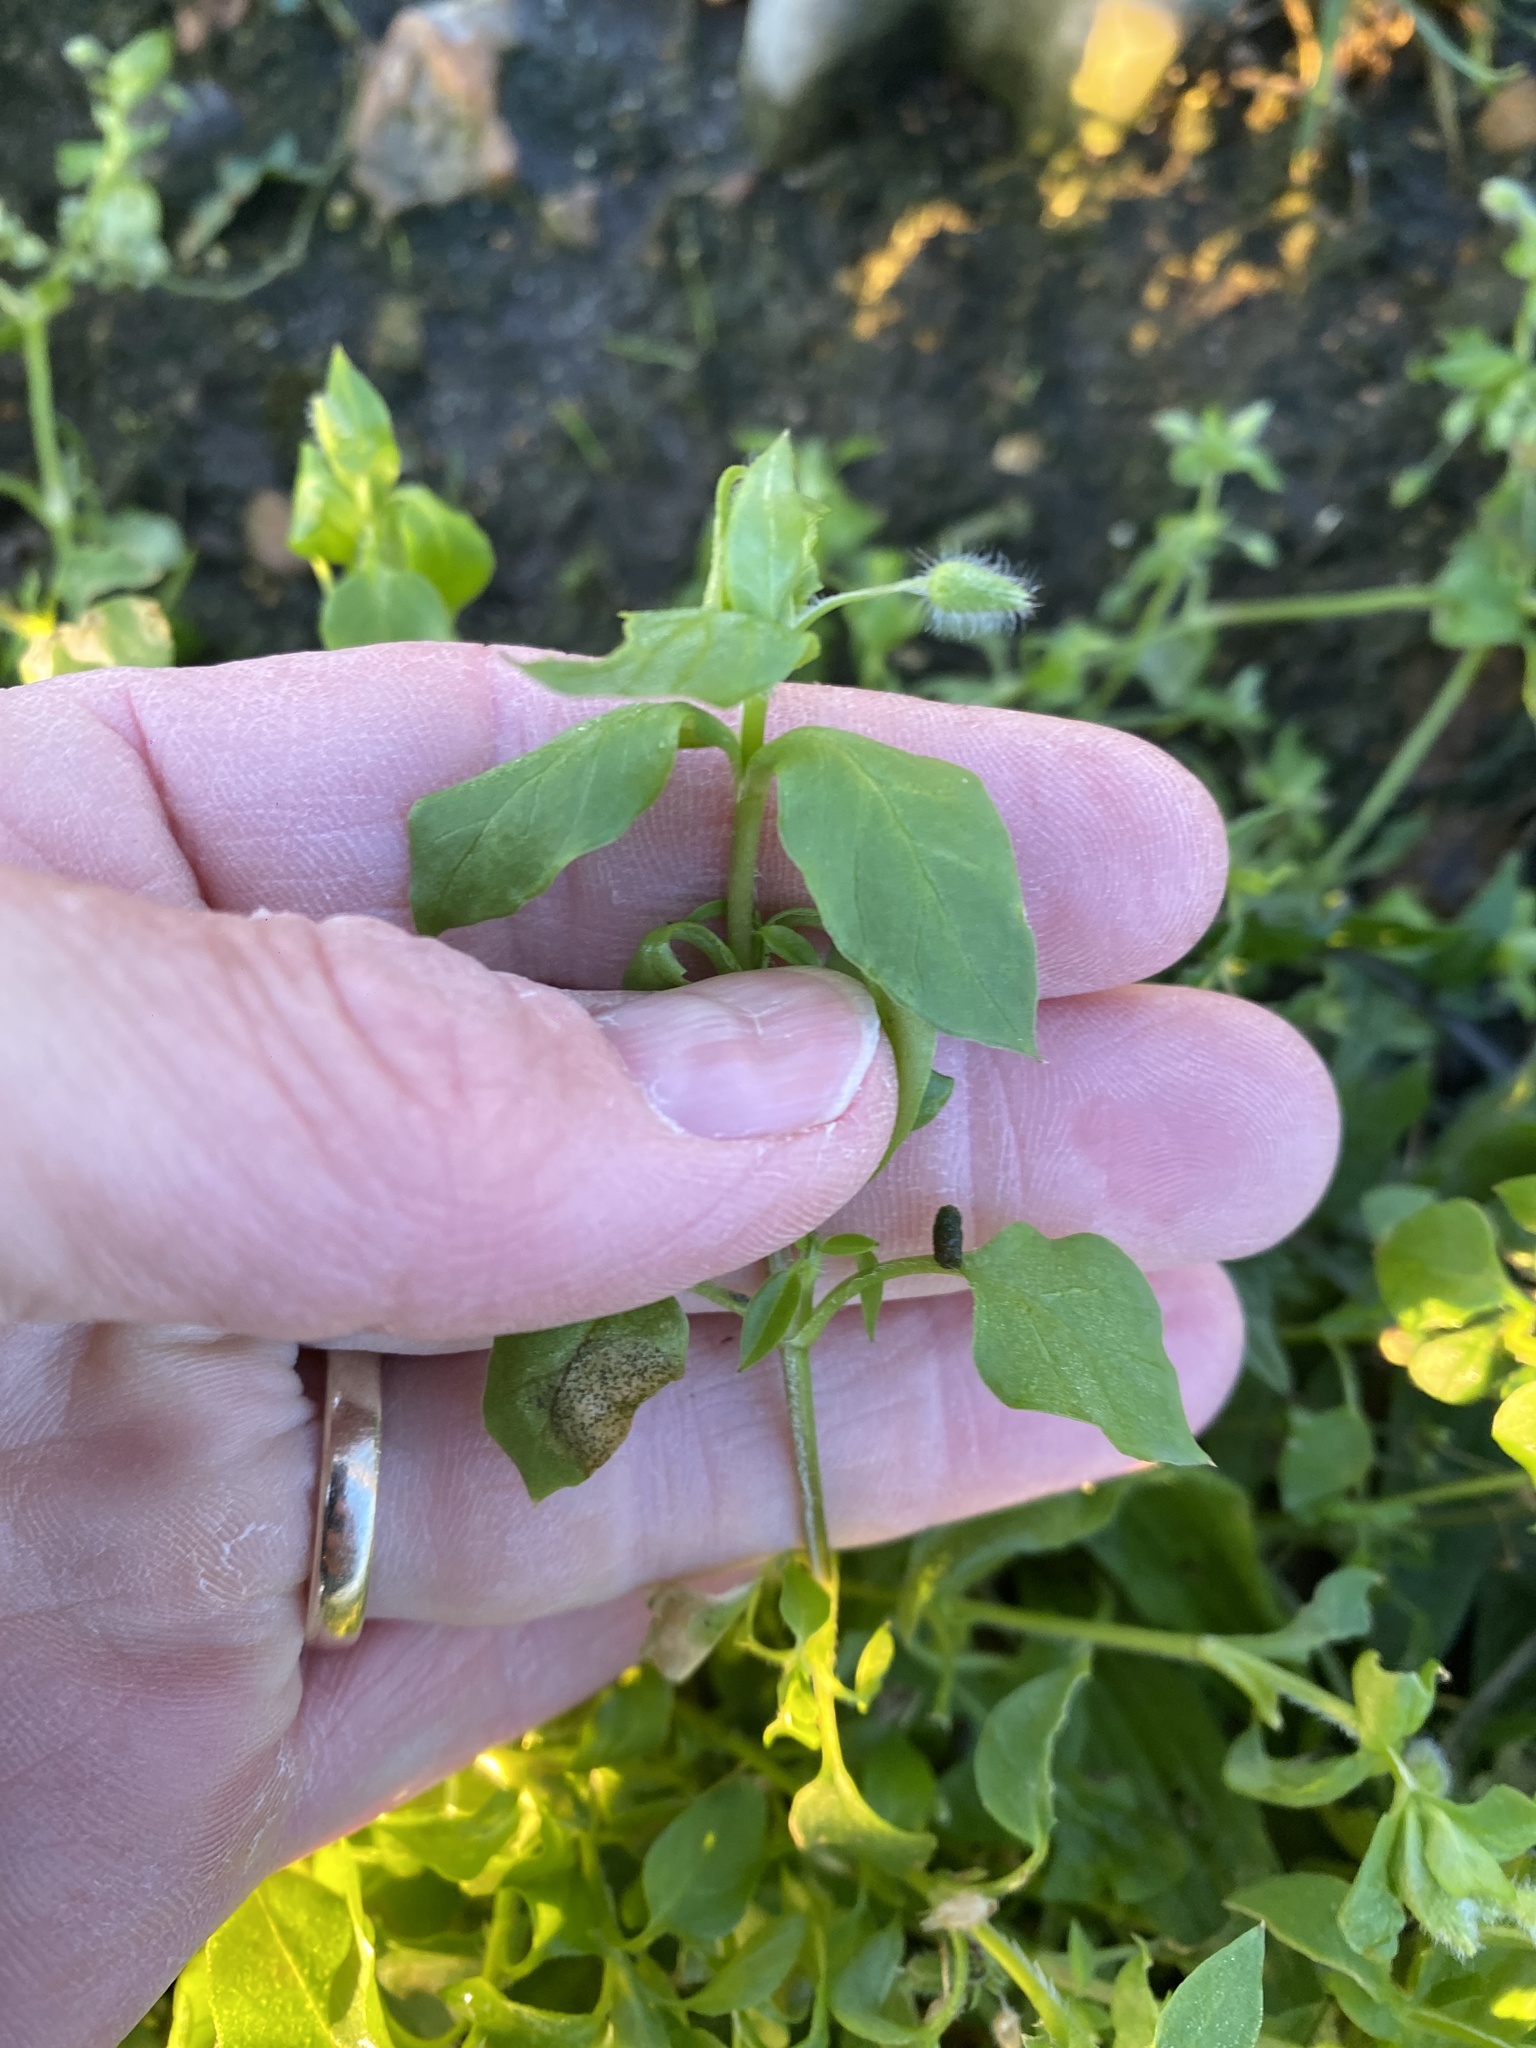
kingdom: Plantae
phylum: Tracheophyta
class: Magnoliopsida
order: Caryophyllales
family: Caryophyllaceae
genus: Stellaria
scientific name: Stellaria media
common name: Common chickweed
